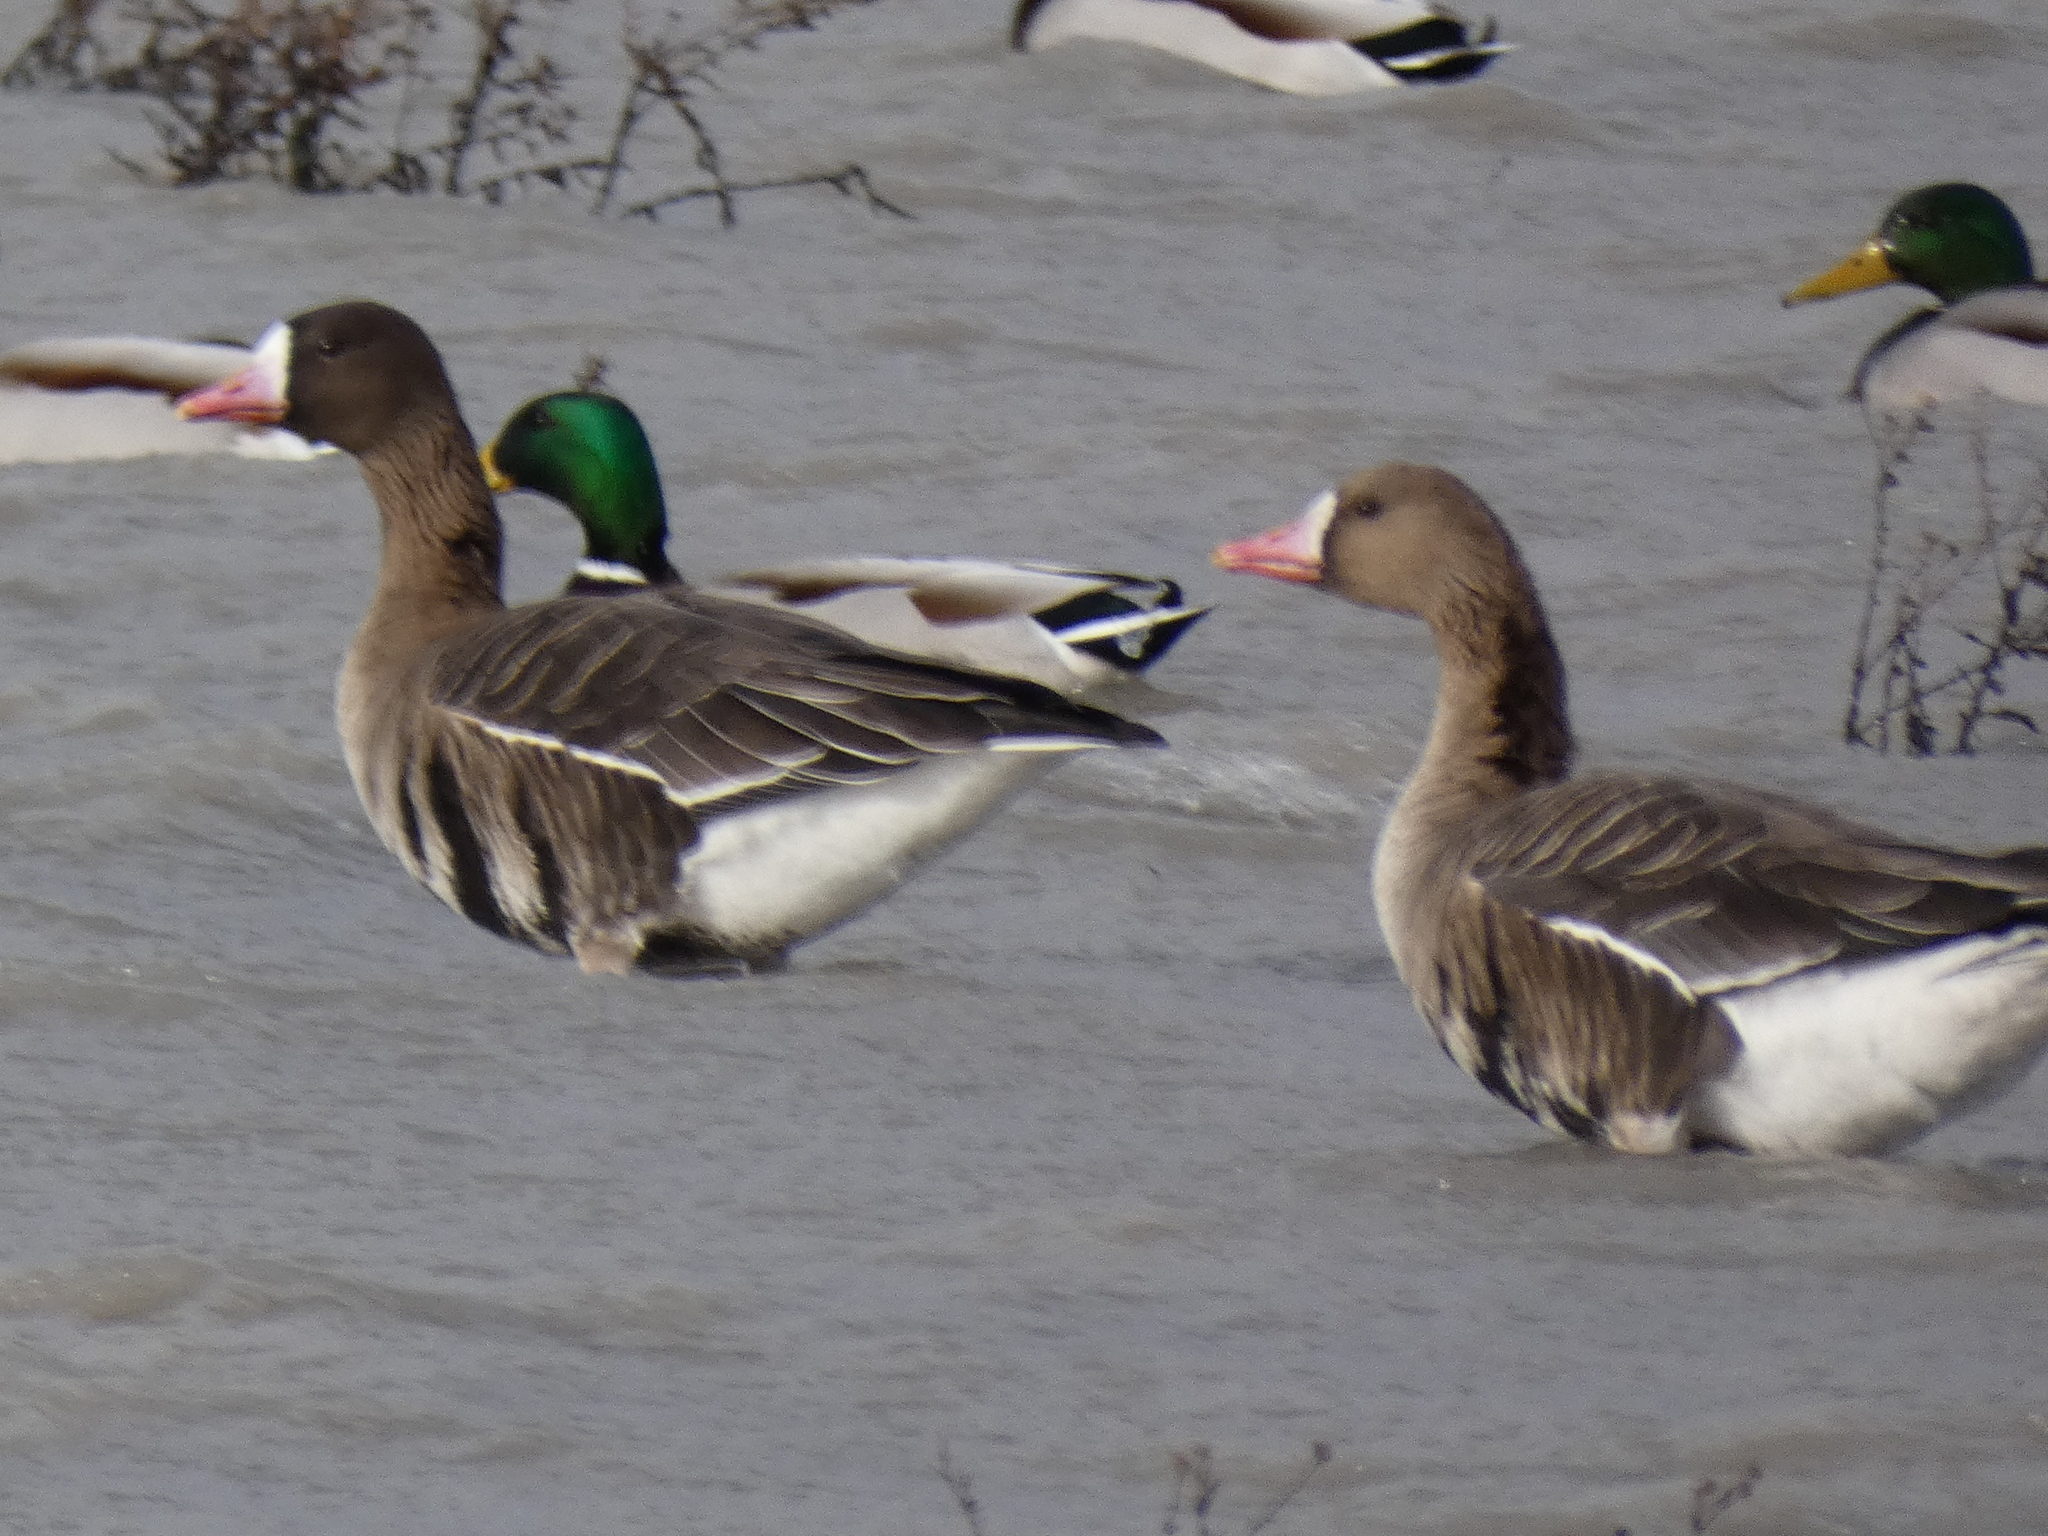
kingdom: Animalia
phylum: Chordata
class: Aves
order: Anseriformes
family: Anatidae
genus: Anser
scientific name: Anser albifrons
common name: Greater white-fronted goose
